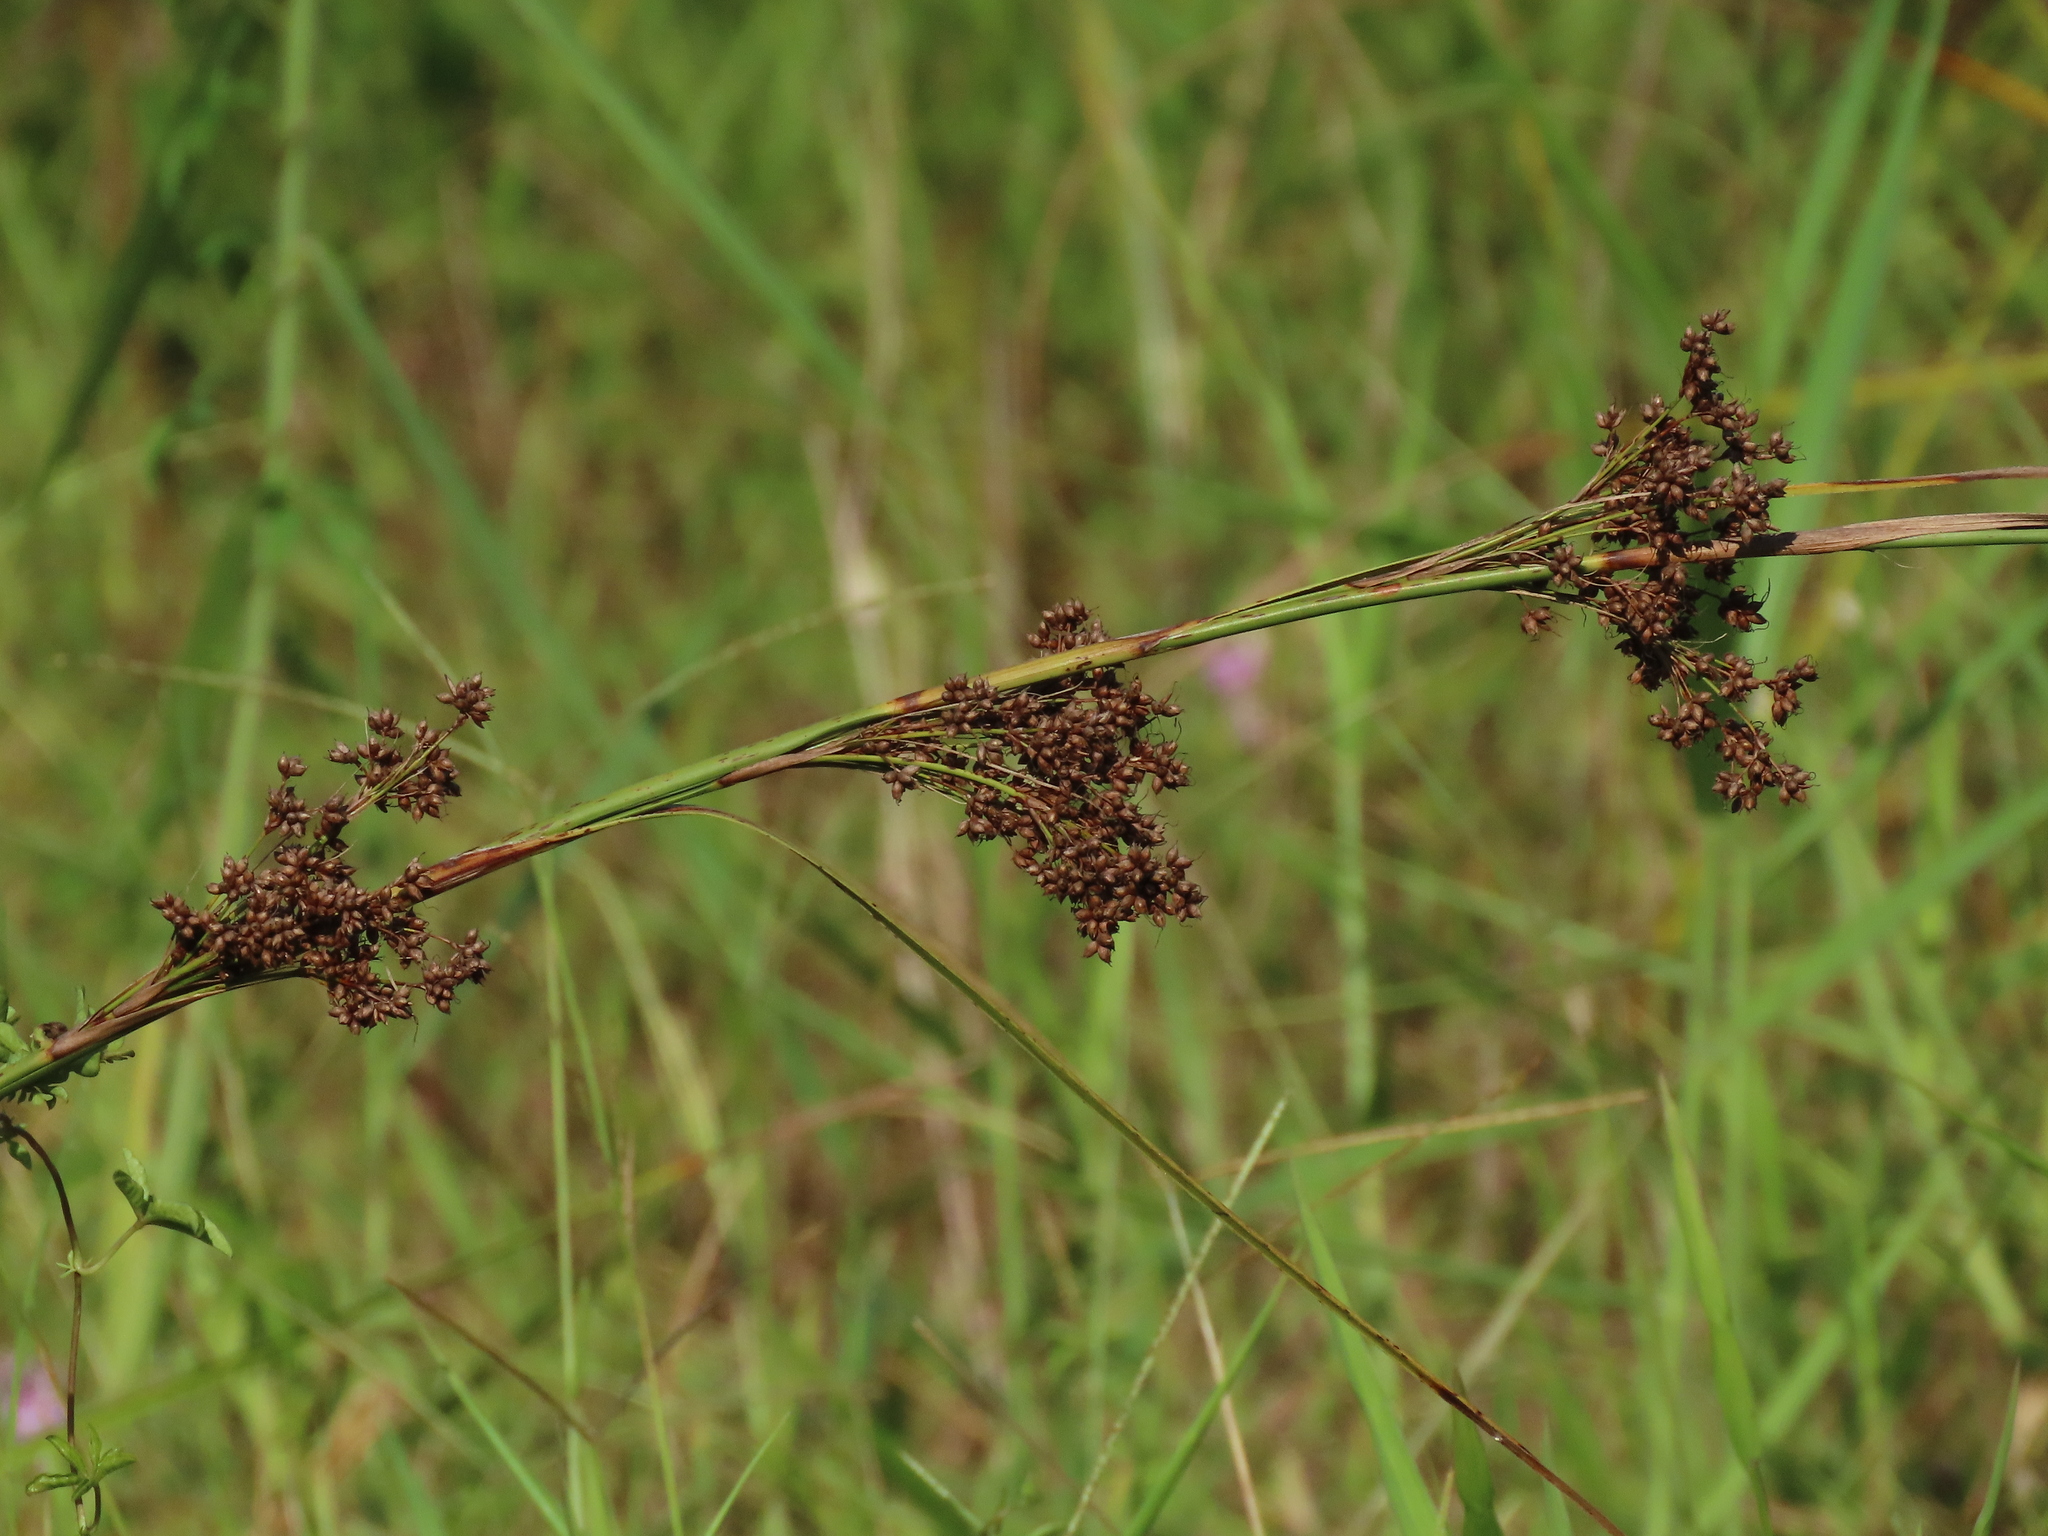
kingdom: Plantae
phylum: Tracheophyta
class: Liliopsida
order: Poales
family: Cyperaceae
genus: Cladium
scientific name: Cladium mariscus
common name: Great fen-sedge
